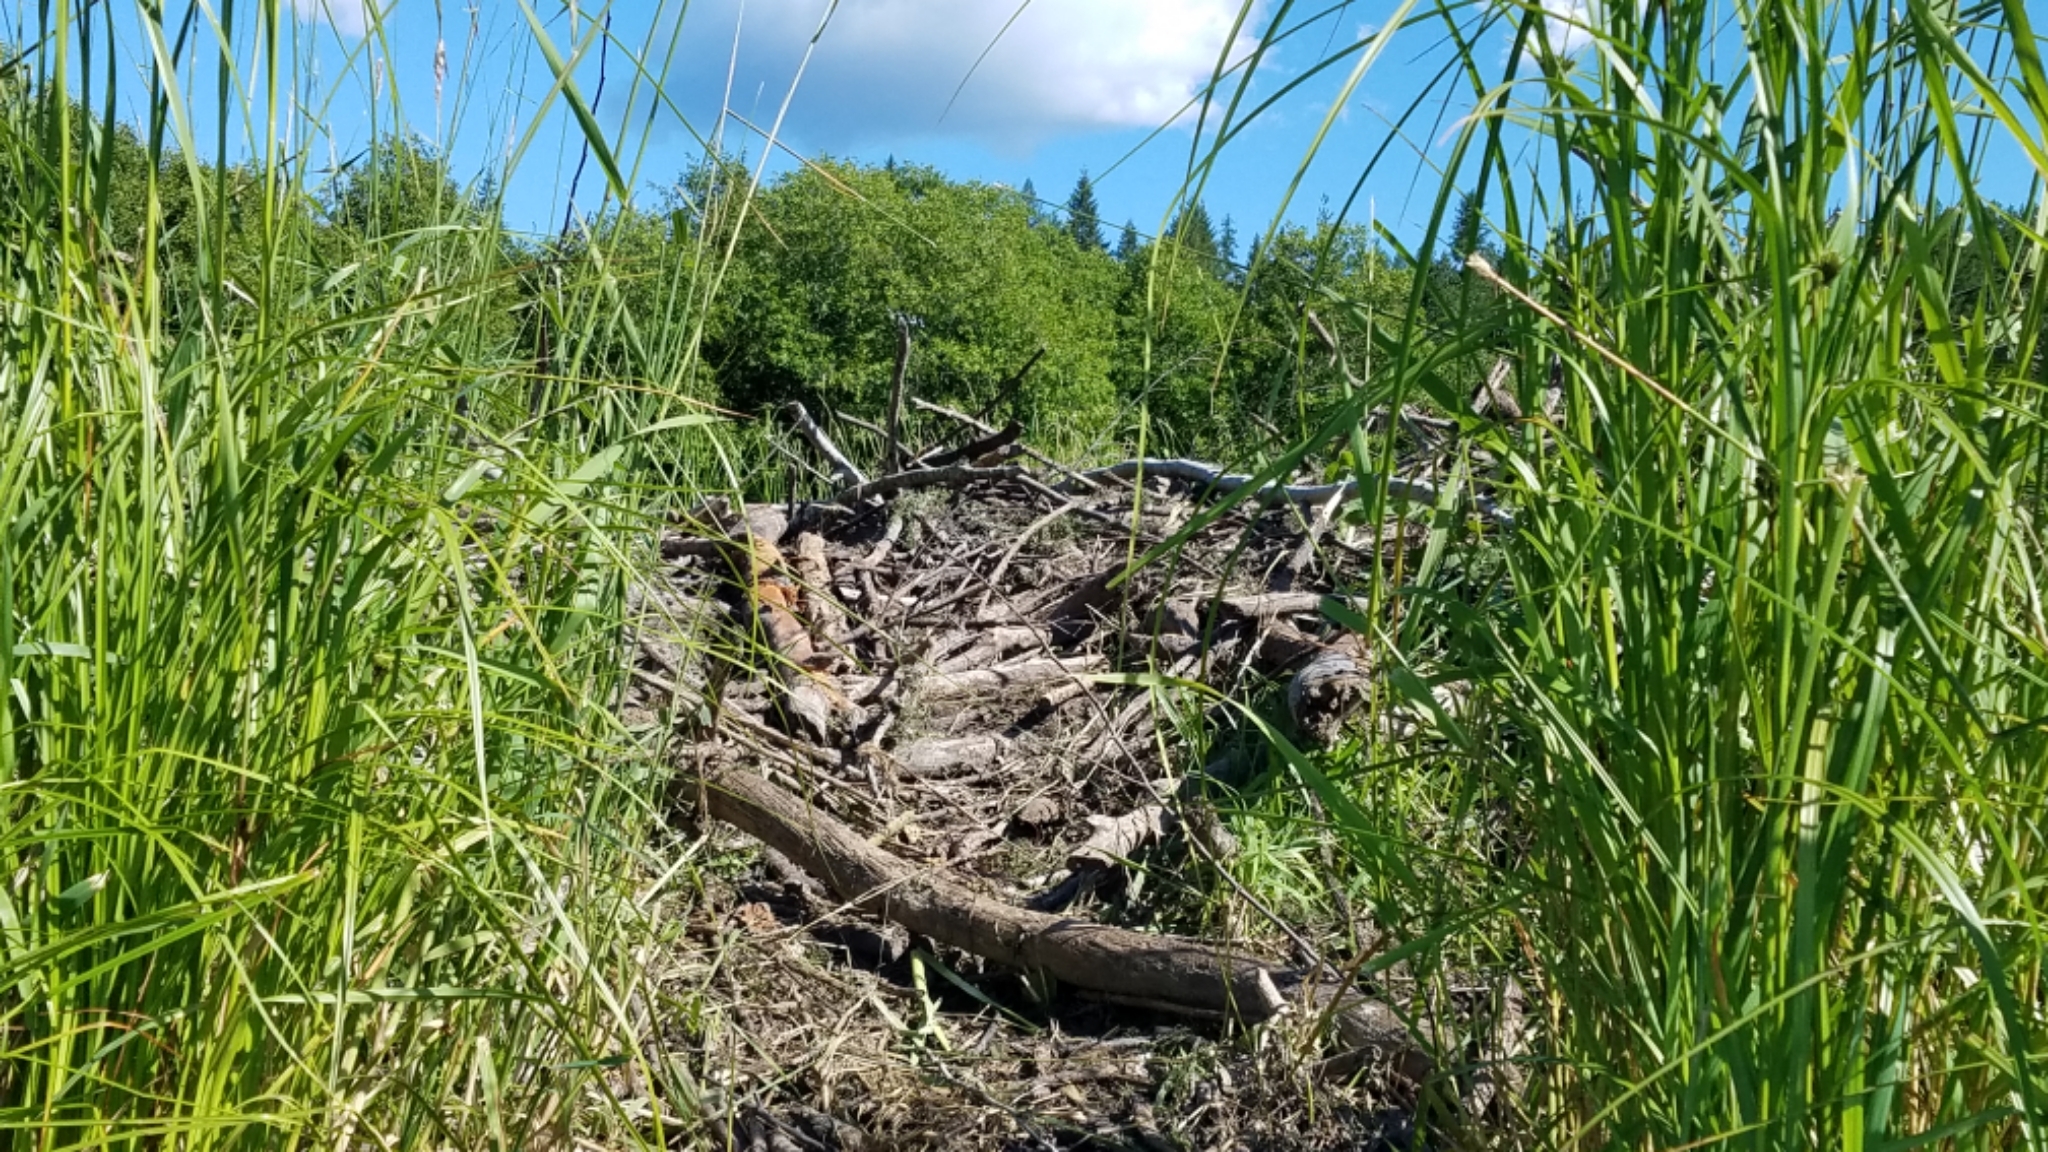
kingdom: Animalia
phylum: Chordata
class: Mammalia
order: Rodentia
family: Castoridae
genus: Castor
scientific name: Castor canadensis
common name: American beaver
